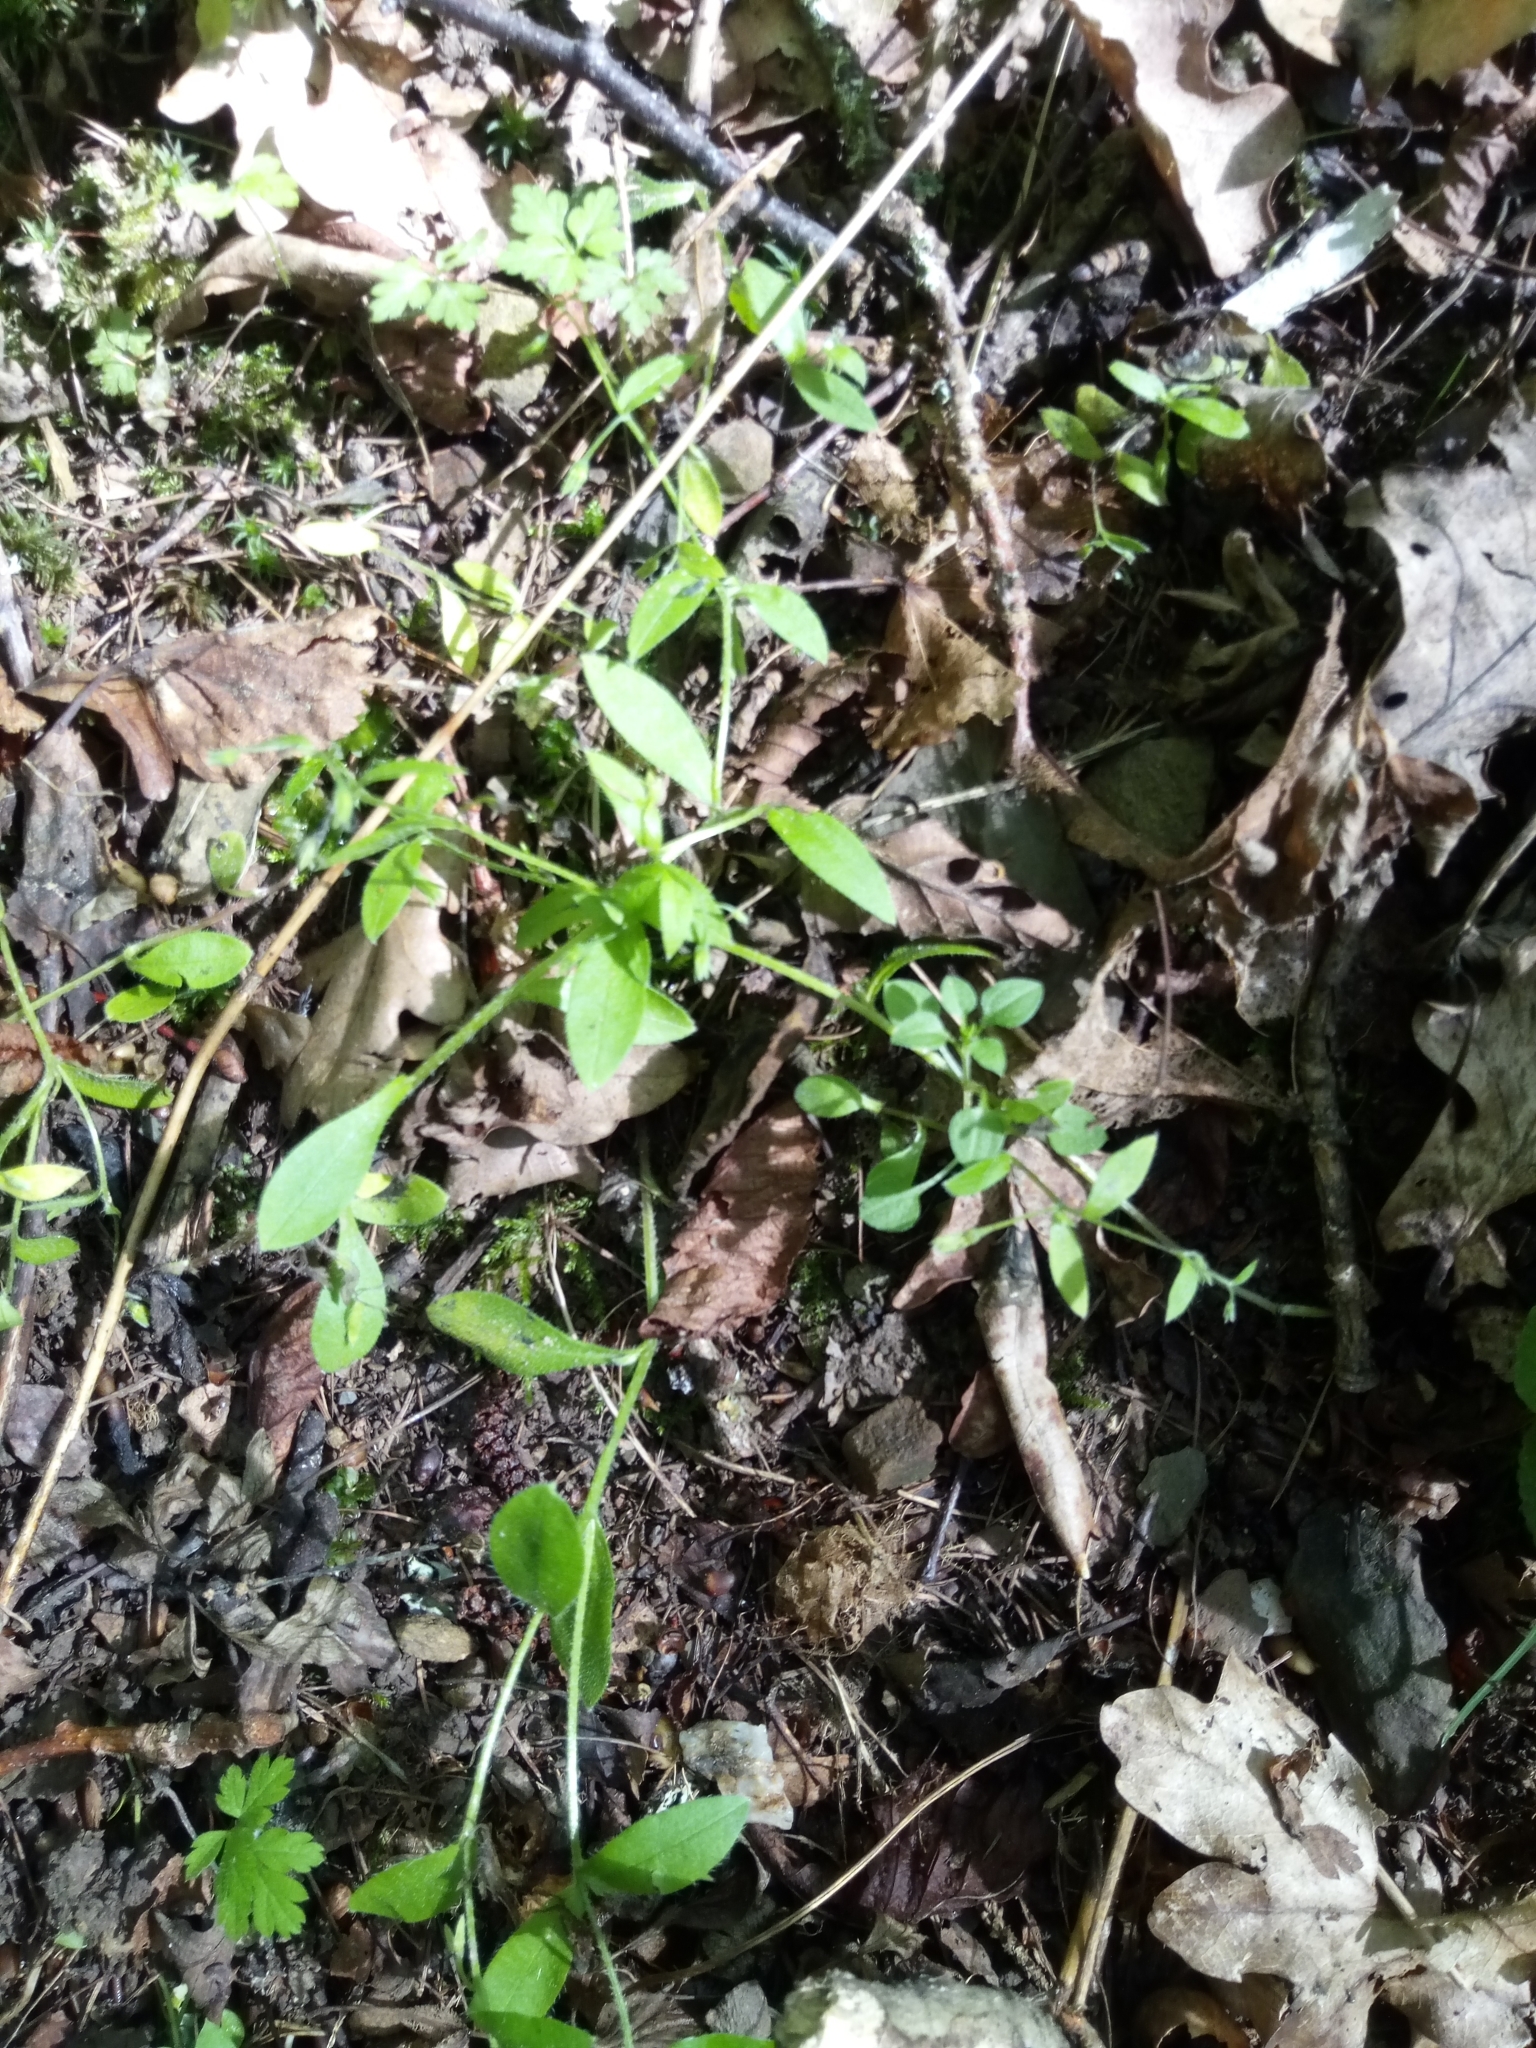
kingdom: Plantae
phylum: Tracheophyta
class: Magnoliopsida
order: Boraginales
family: Boraginaceae
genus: Myosotis
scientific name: Myosotis sparsiflora
